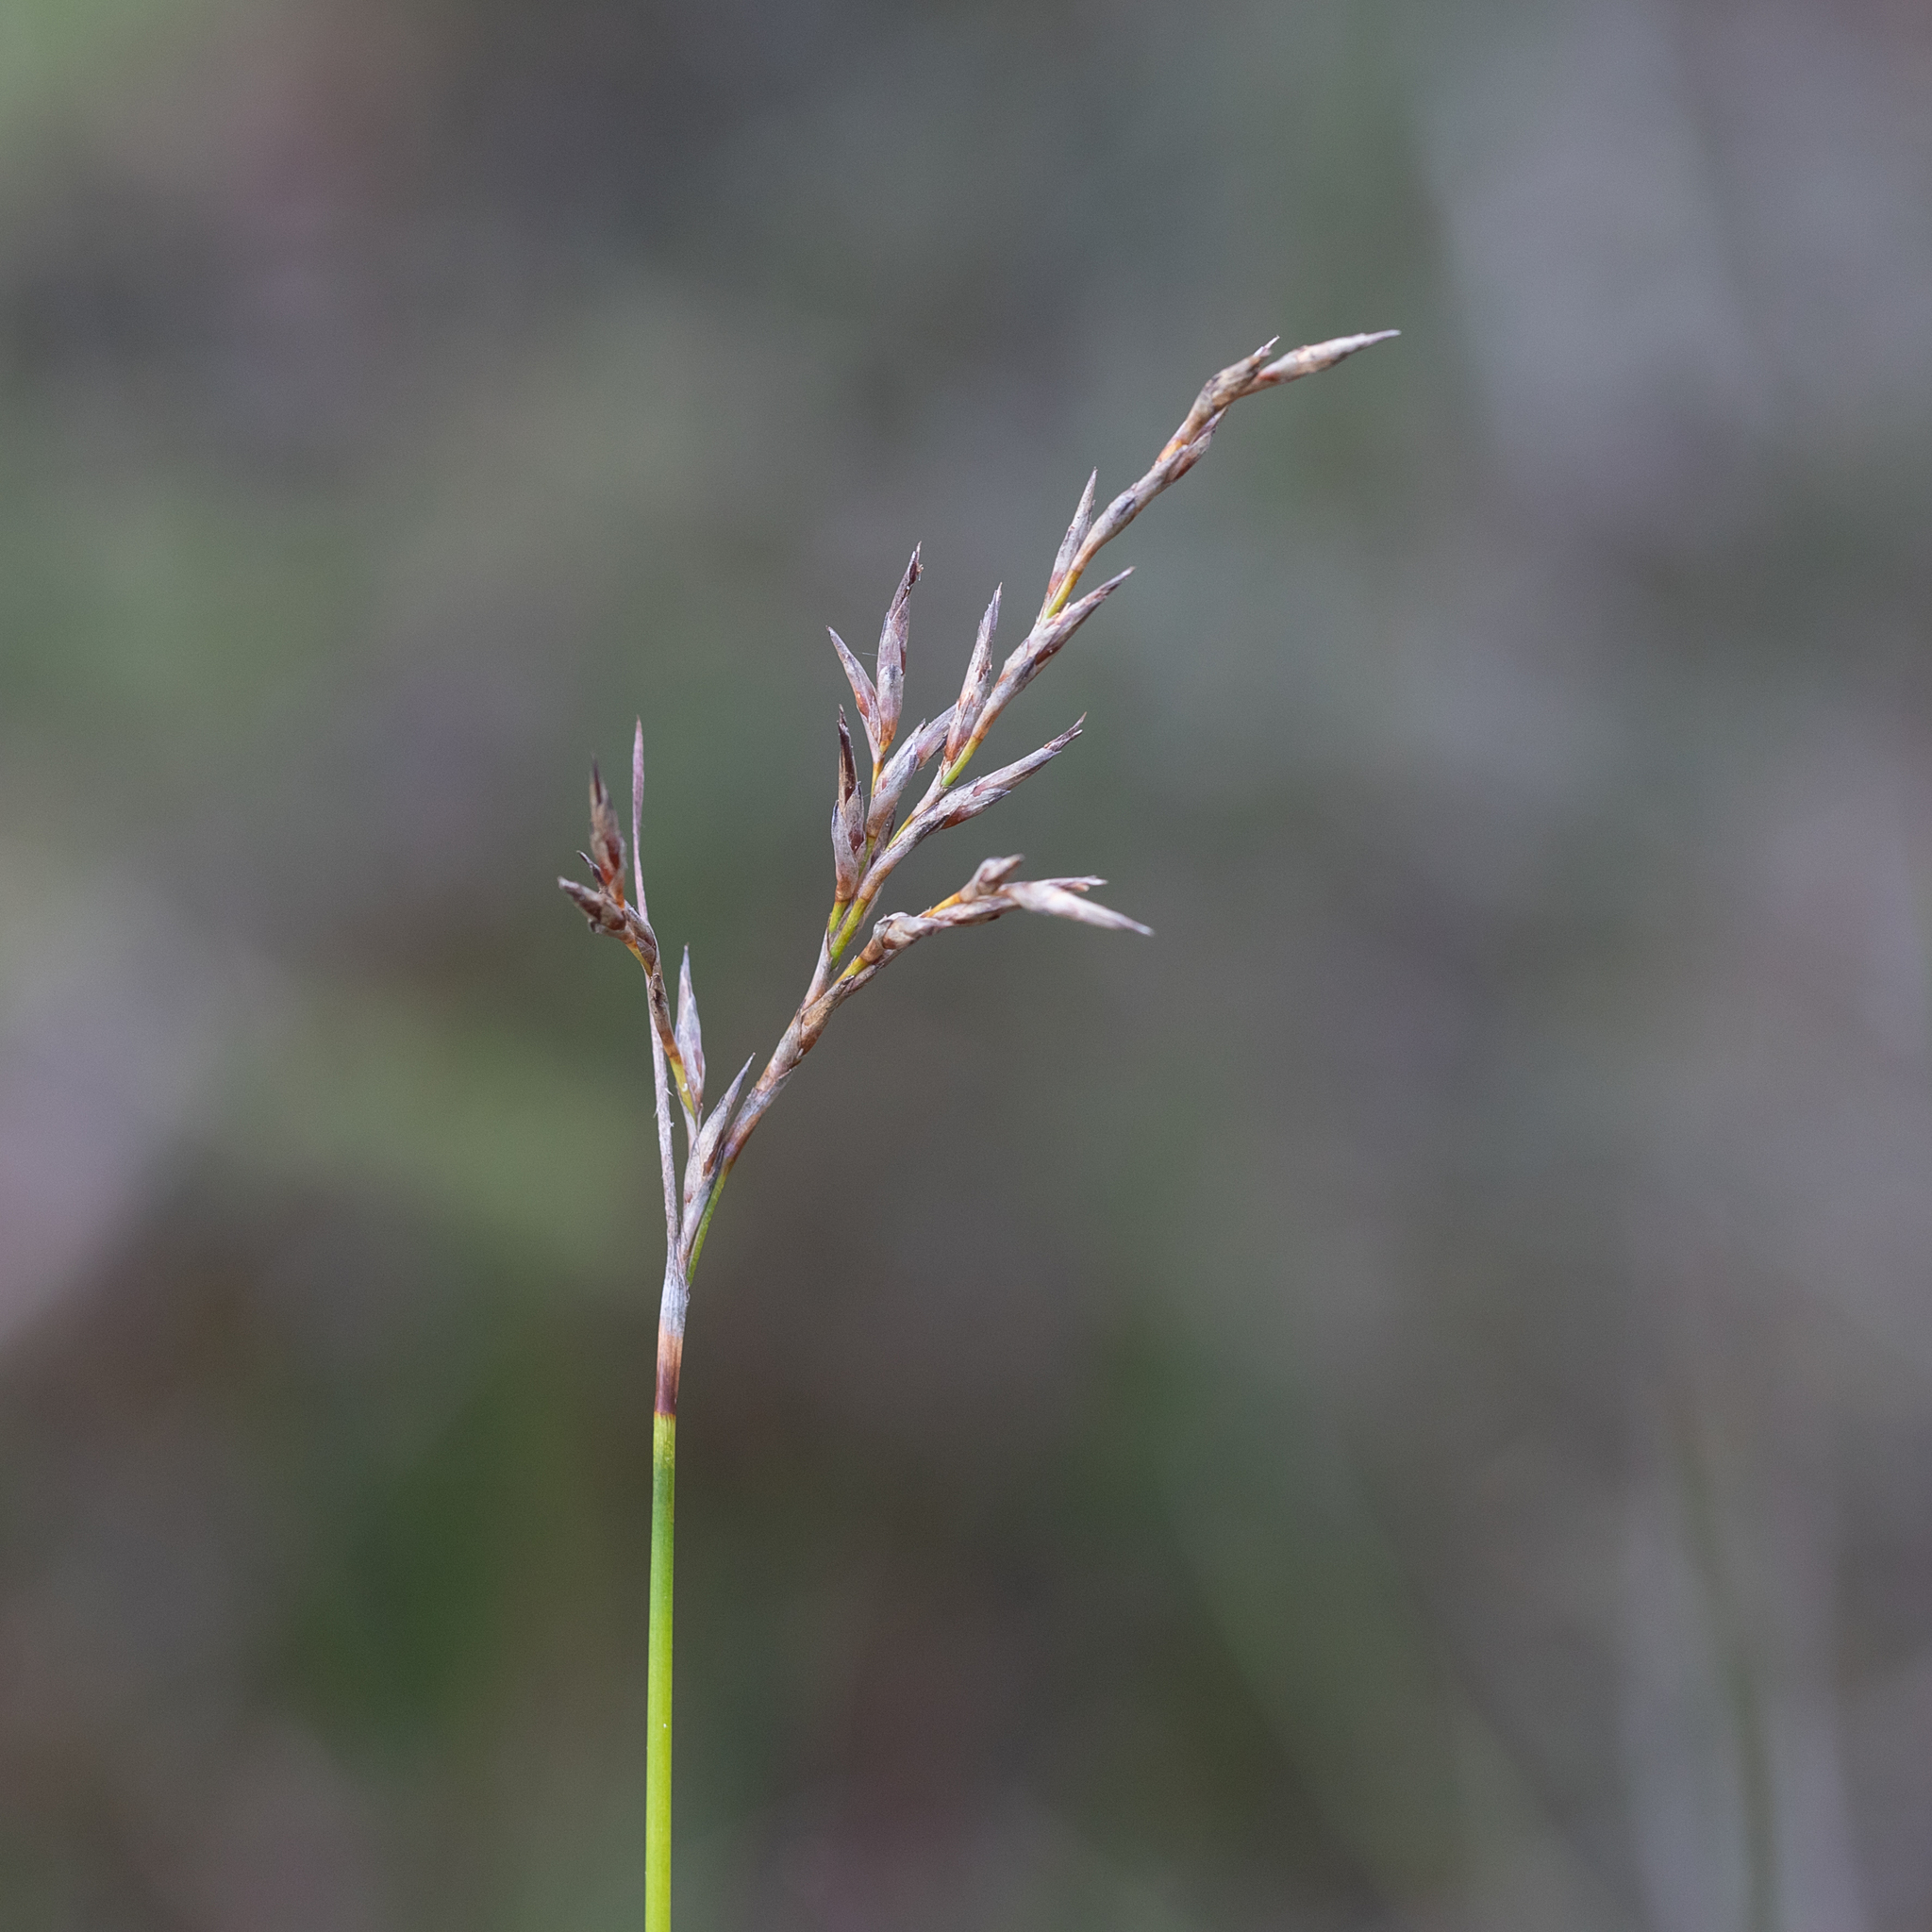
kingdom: Plantae
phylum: Tracheophyta
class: Liliopsida
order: Poales
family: Cyperaceae
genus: Lepidosperma
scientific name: Lepidosperma semiteres
